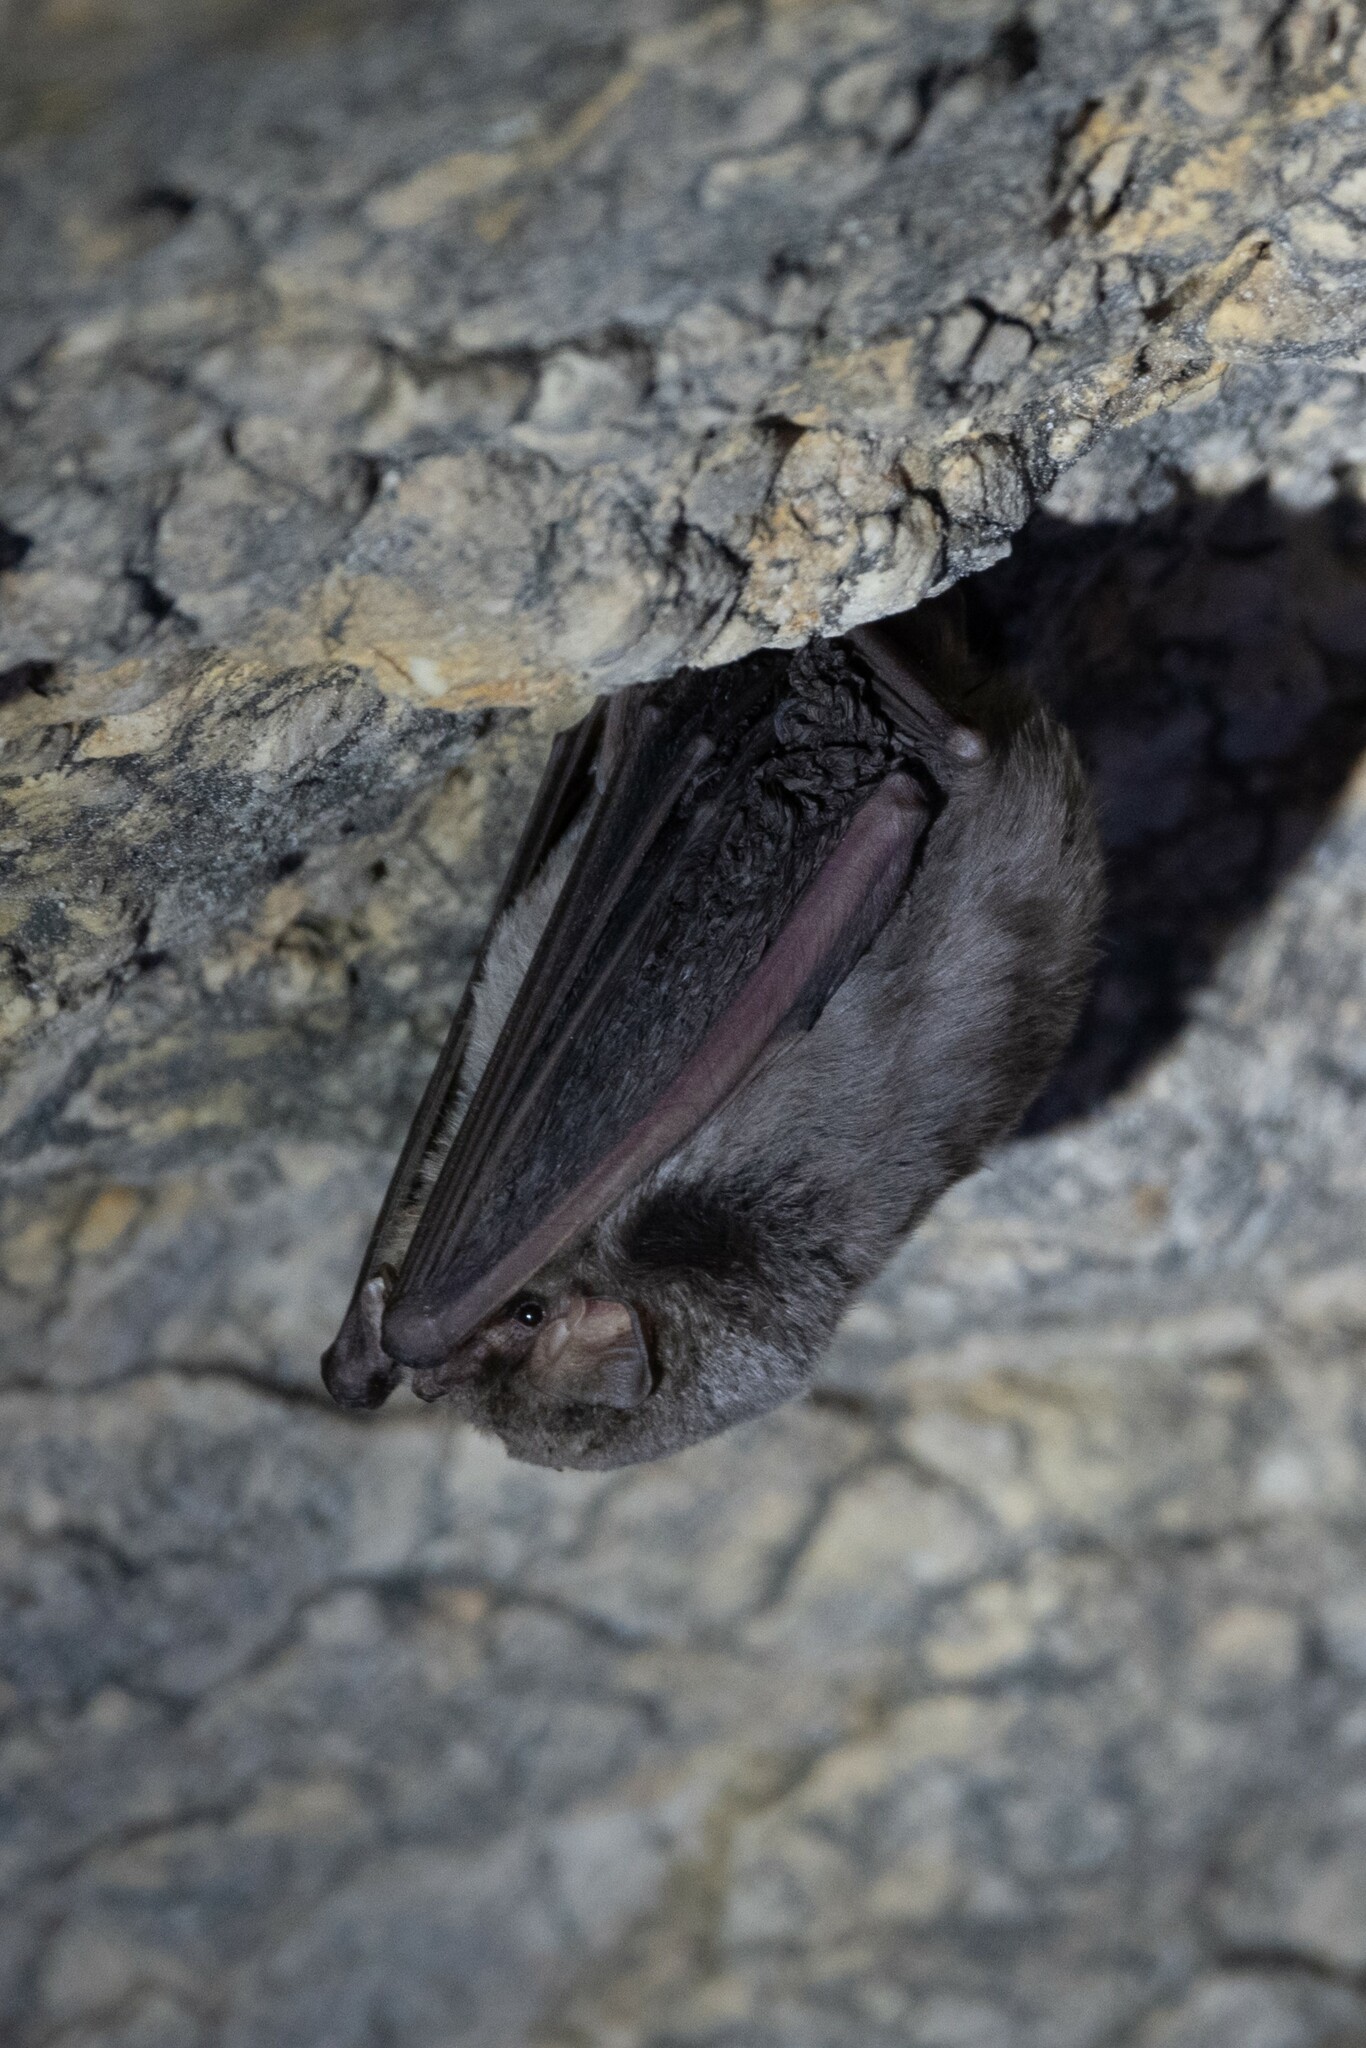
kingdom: Animalia
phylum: Chordata
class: Mammalia
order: Chiroptera
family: Miniopteridae
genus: Miniopterus
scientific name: Miniopterus schreibersii
